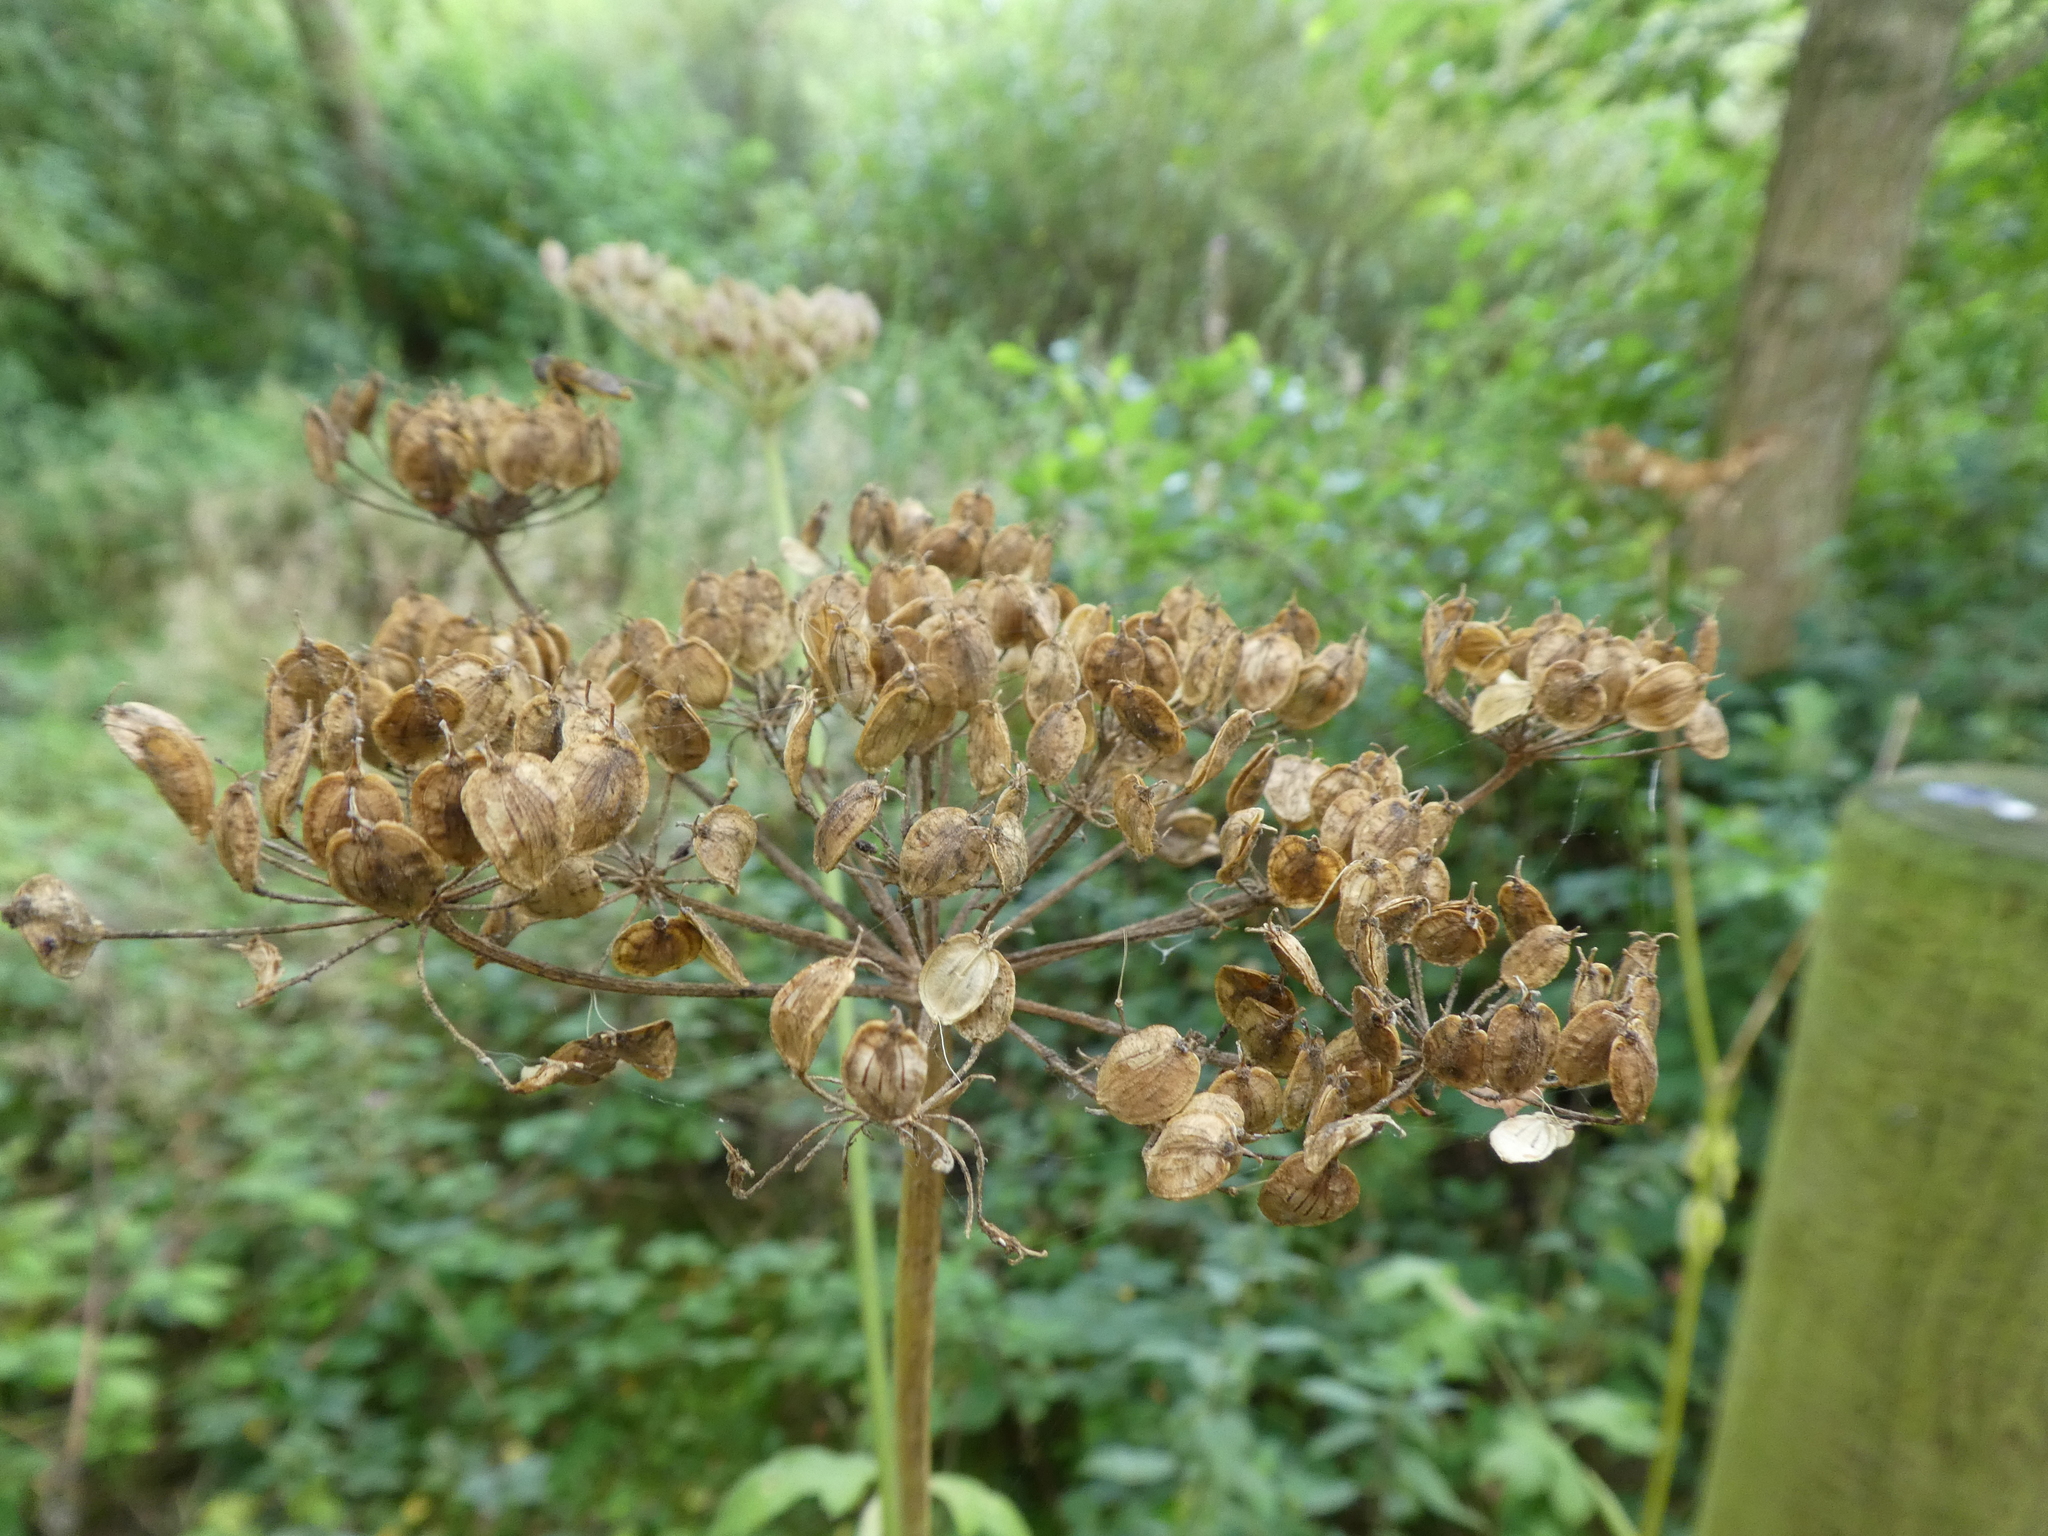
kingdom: Plantae
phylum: Tracheophyta
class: Magnoliopsida
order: Apiales
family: Apiaceae
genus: Heracleum
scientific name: Heracleum sphondylium
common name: Hogweed
